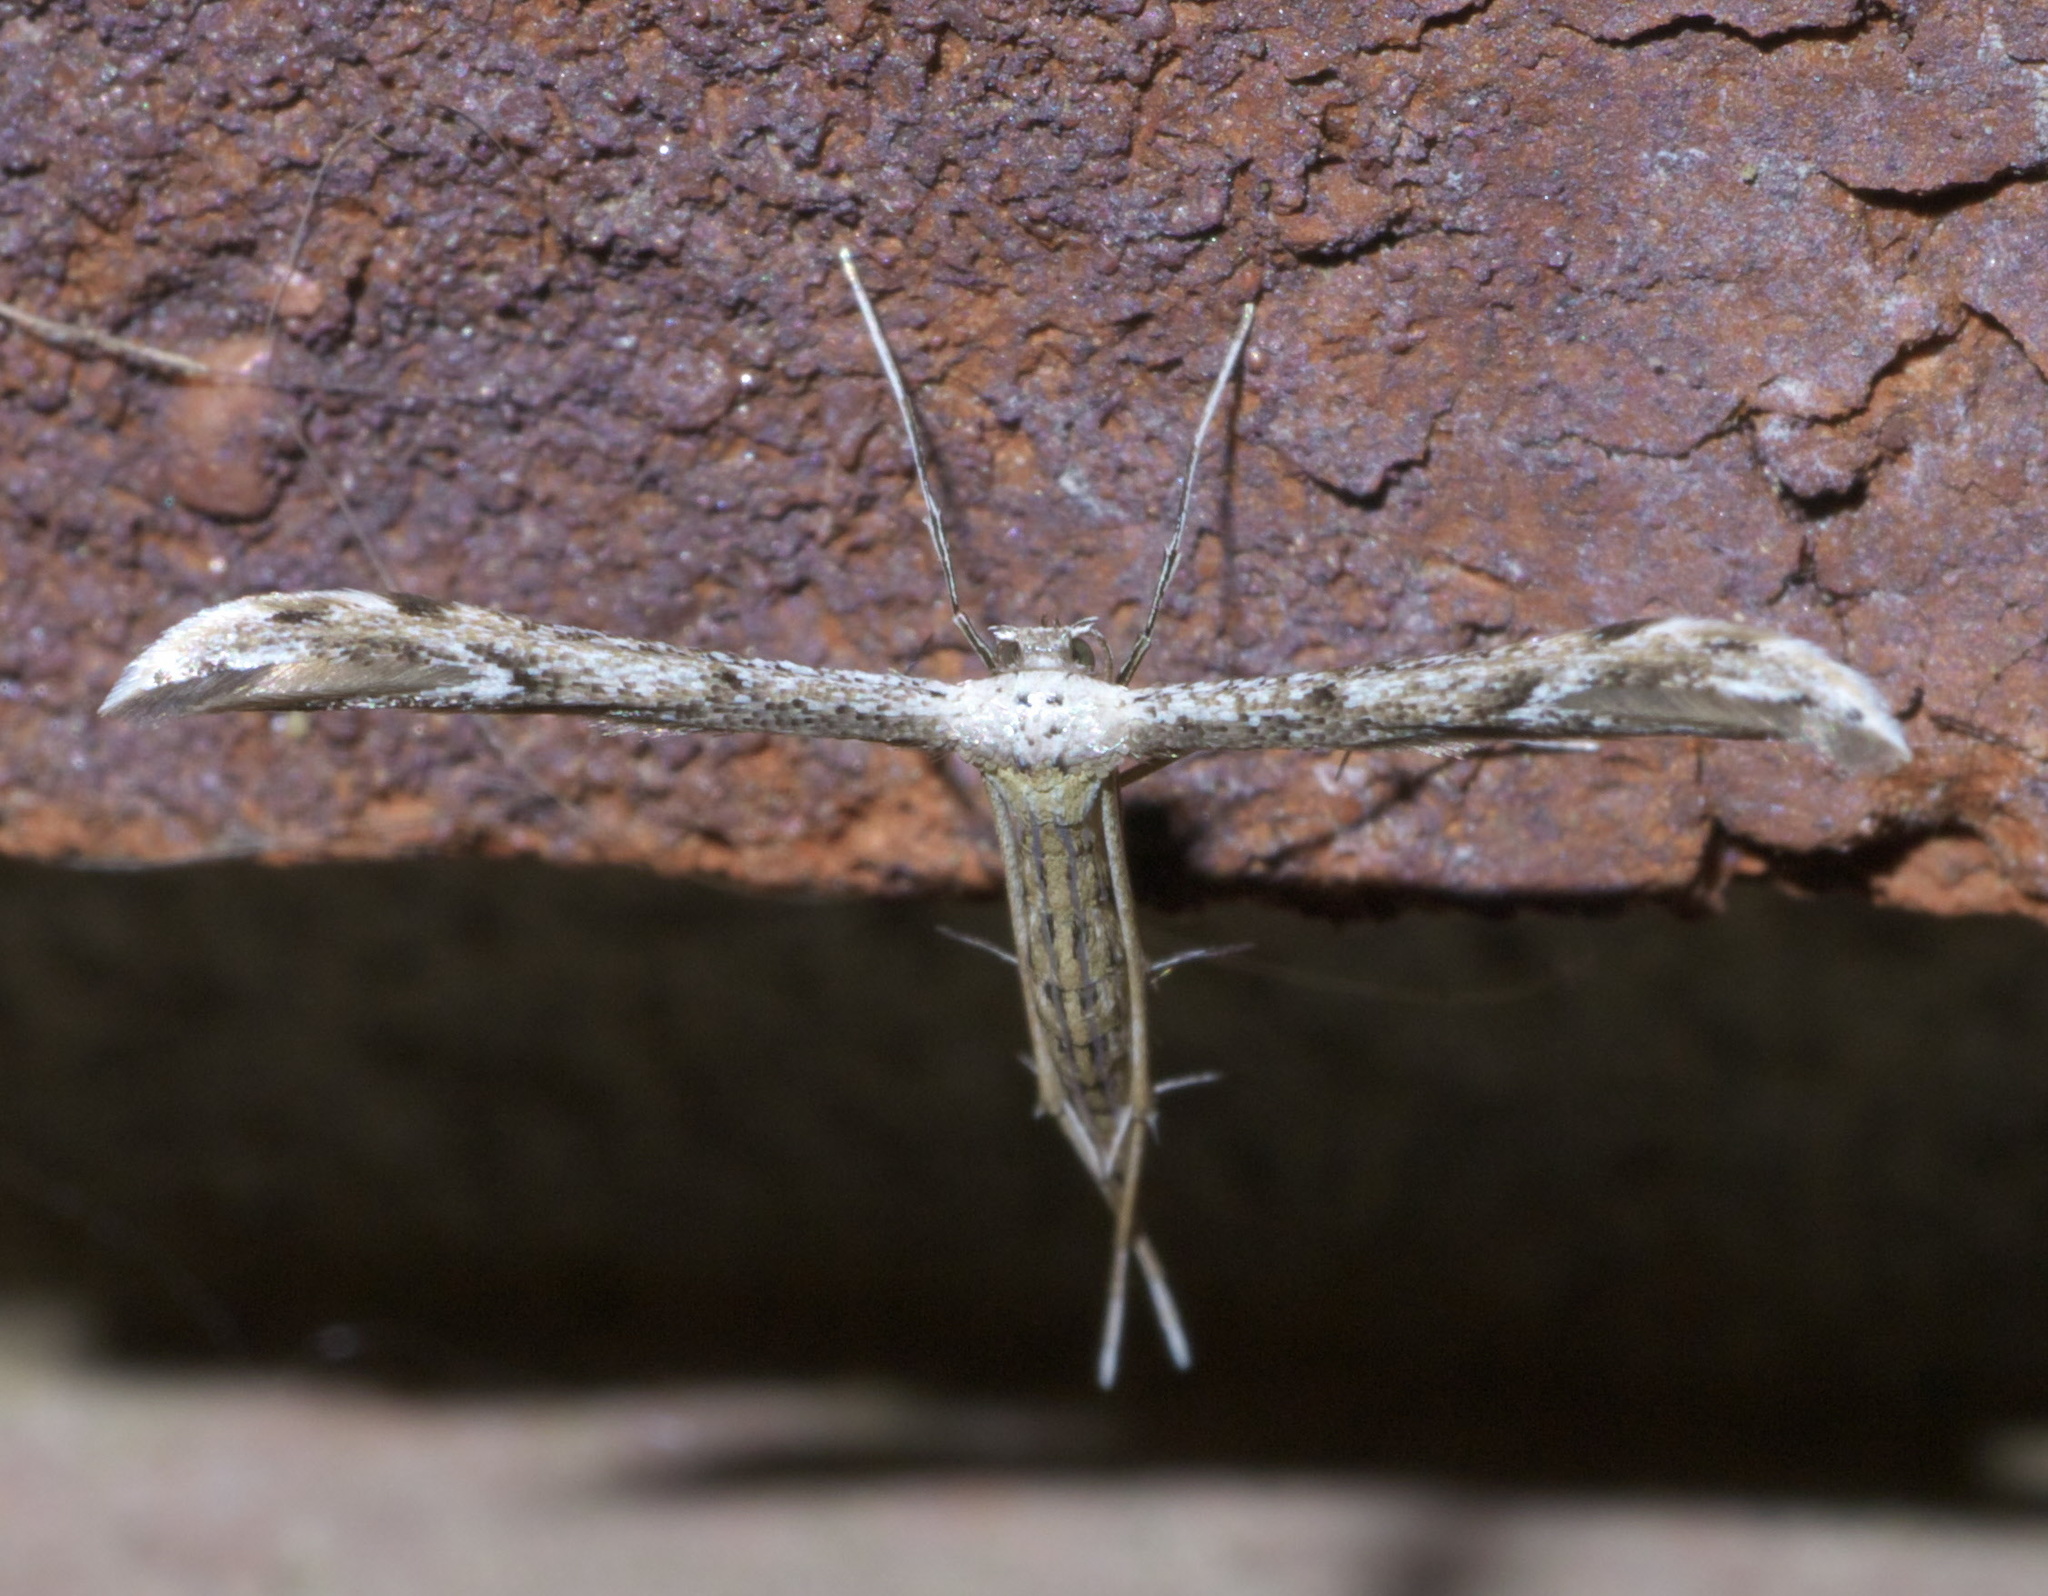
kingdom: Animalia
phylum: Arthropoda
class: Insecta
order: Lepidoptera
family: Pterophoridae
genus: Pselnophorus
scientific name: Pselnophorus belfragei
